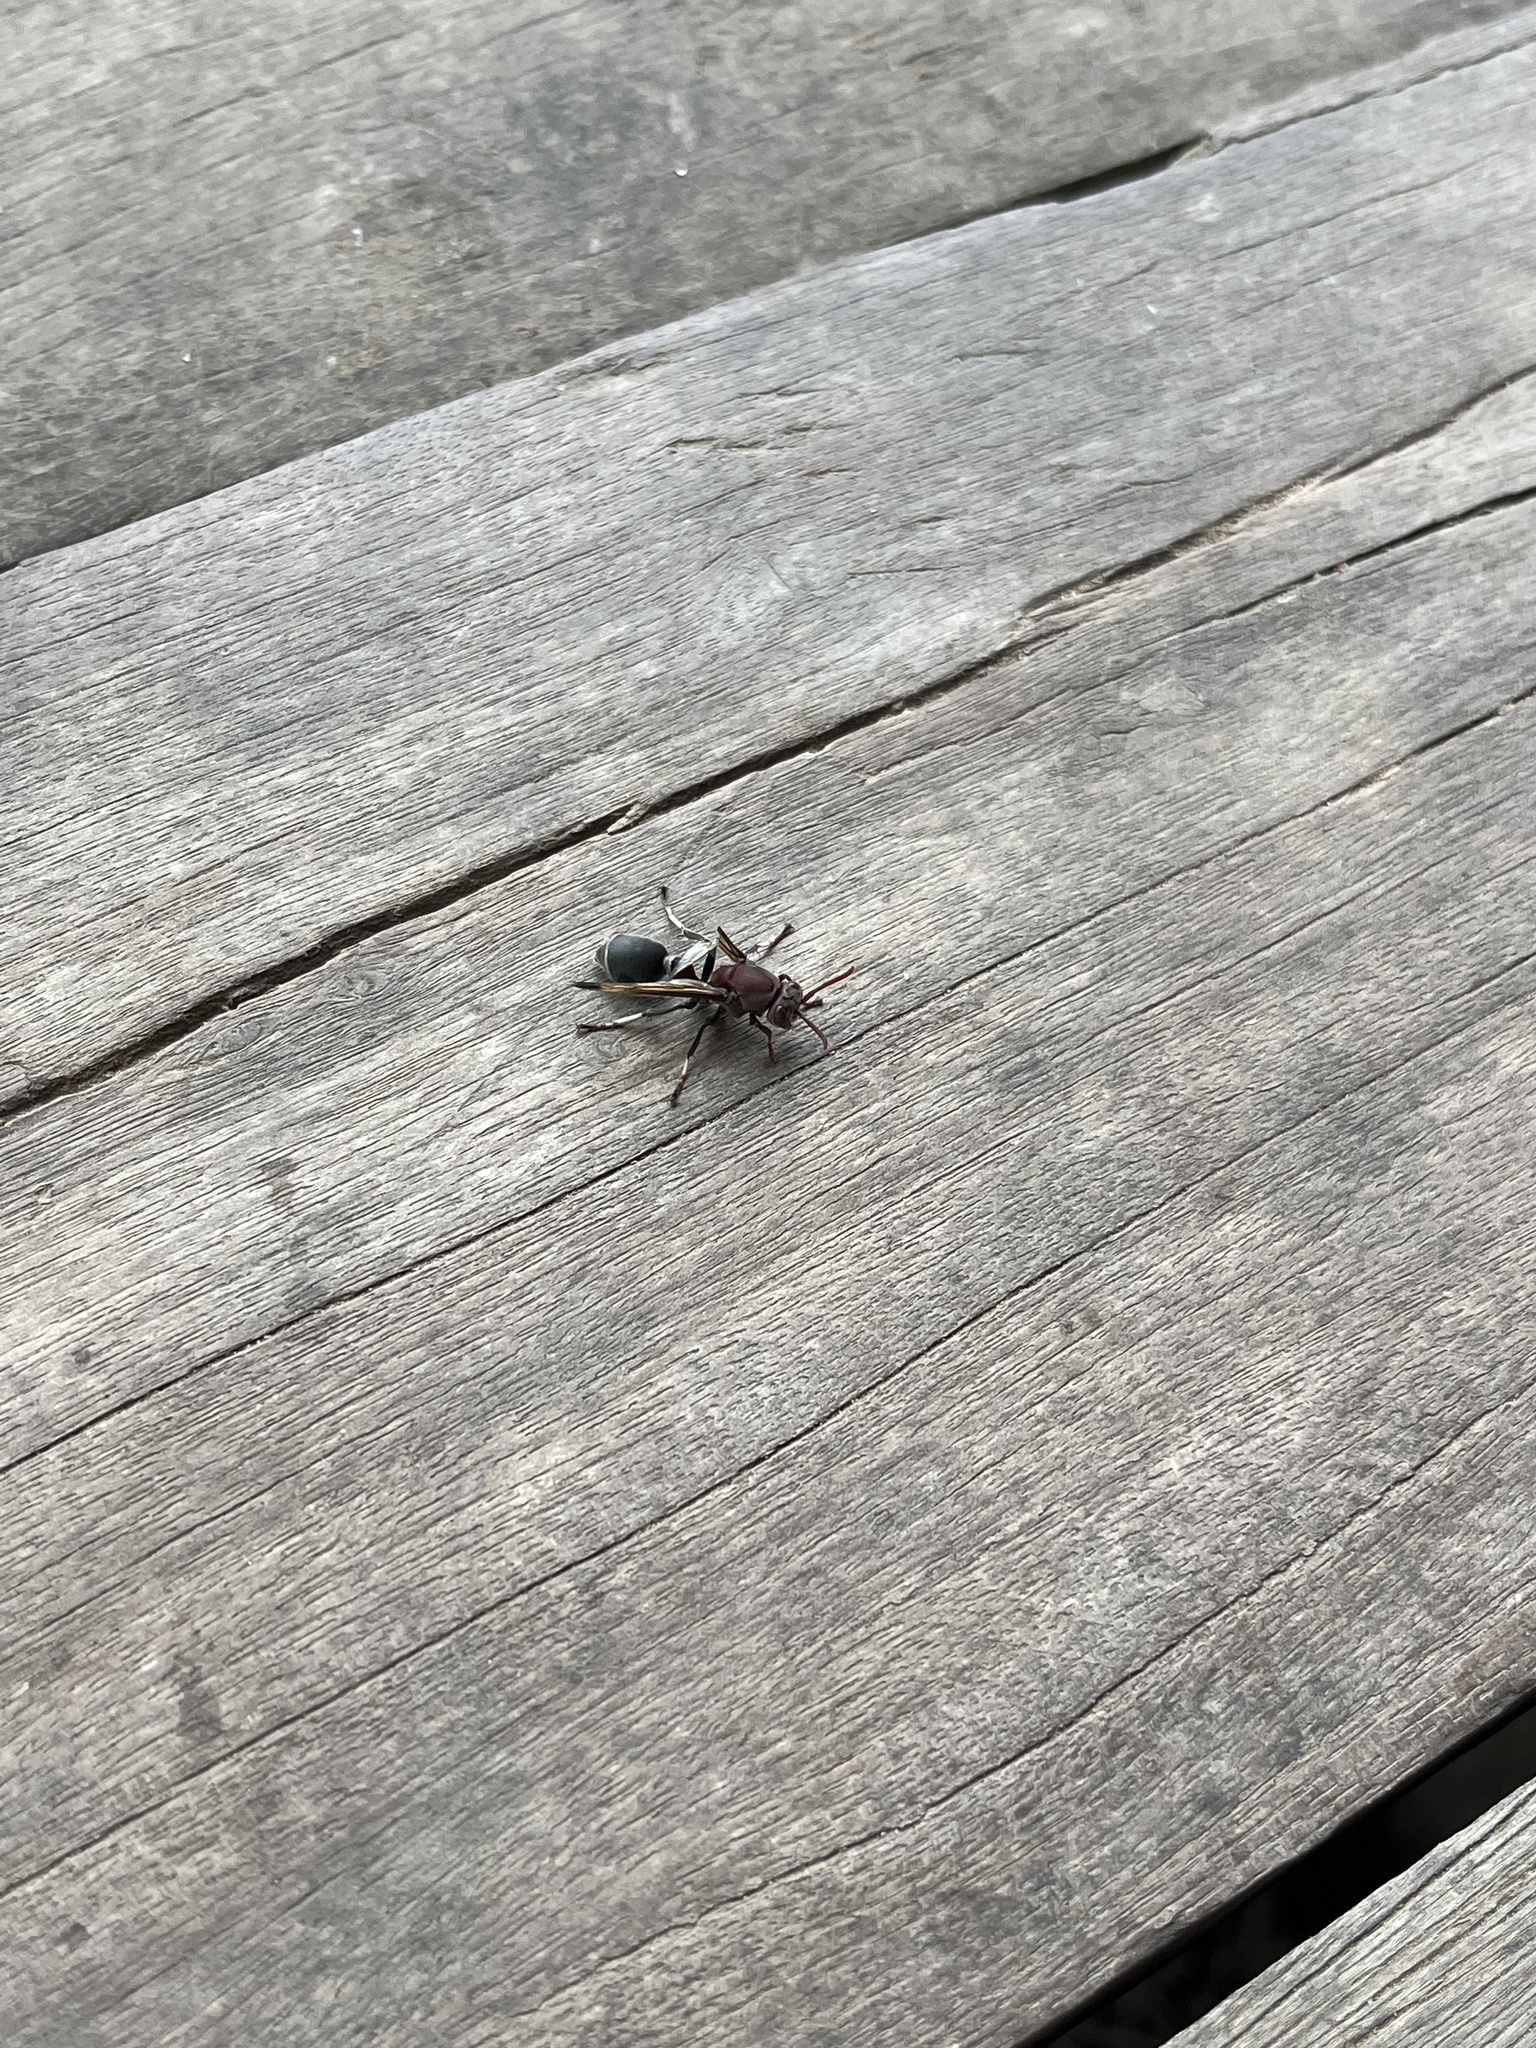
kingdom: Animalia
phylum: Arthropoda
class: Insecta
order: Hymenoptera
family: Vespidae
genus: Ropalidia
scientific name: Ropalidia magnanima
